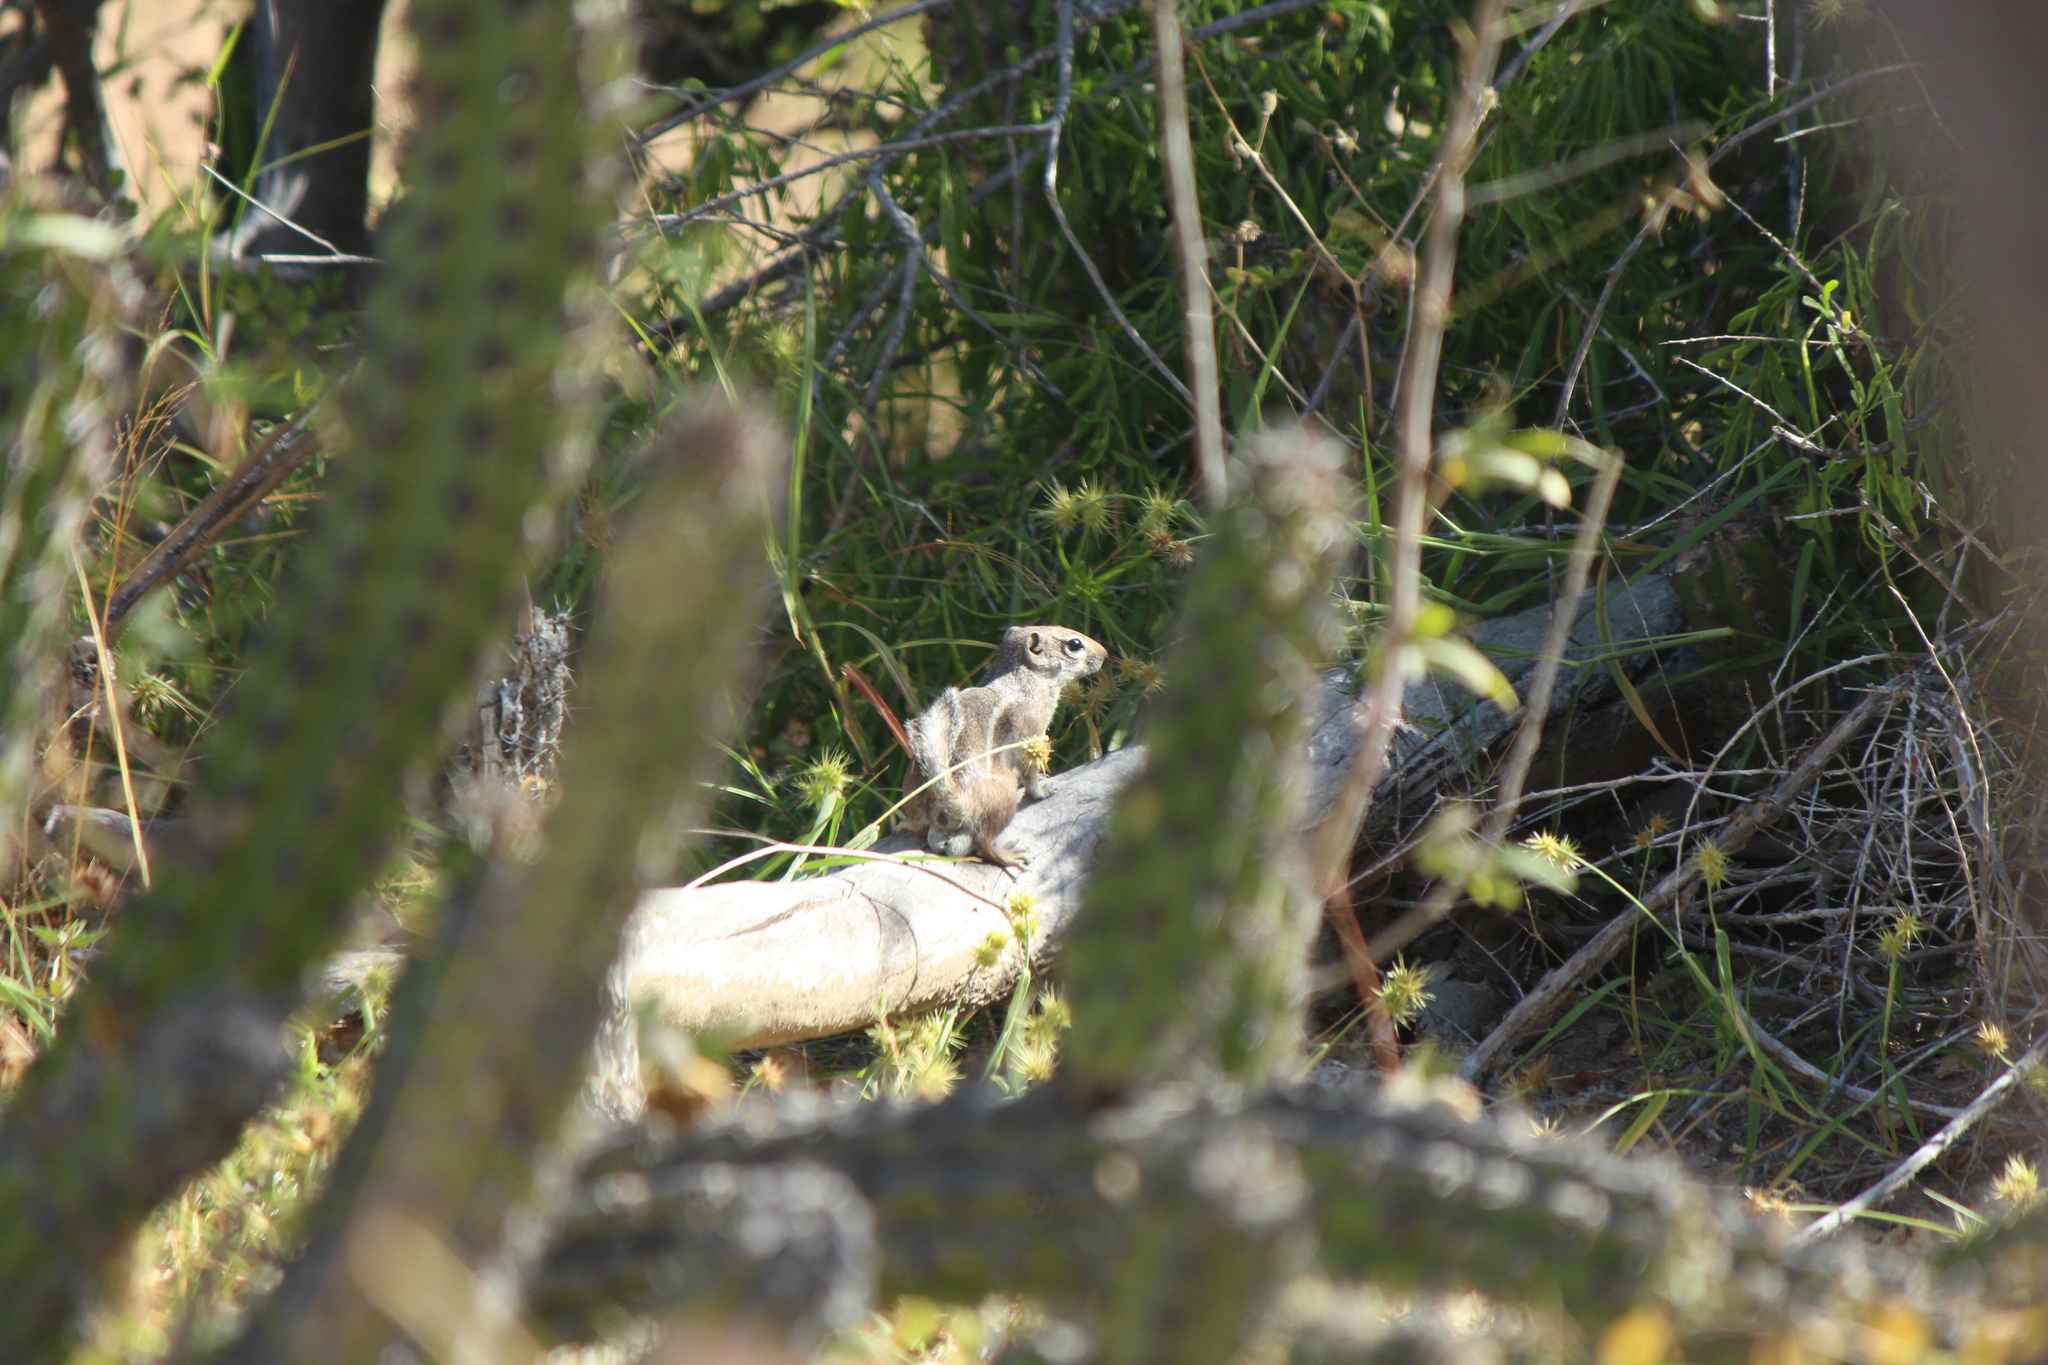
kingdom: Animalia
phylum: Chordata
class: Mammalia
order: Rodentia
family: Sciuridae
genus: Ammospermophilus
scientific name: Ammospermophilus leucurus
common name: White-tailed antelope squirrel
